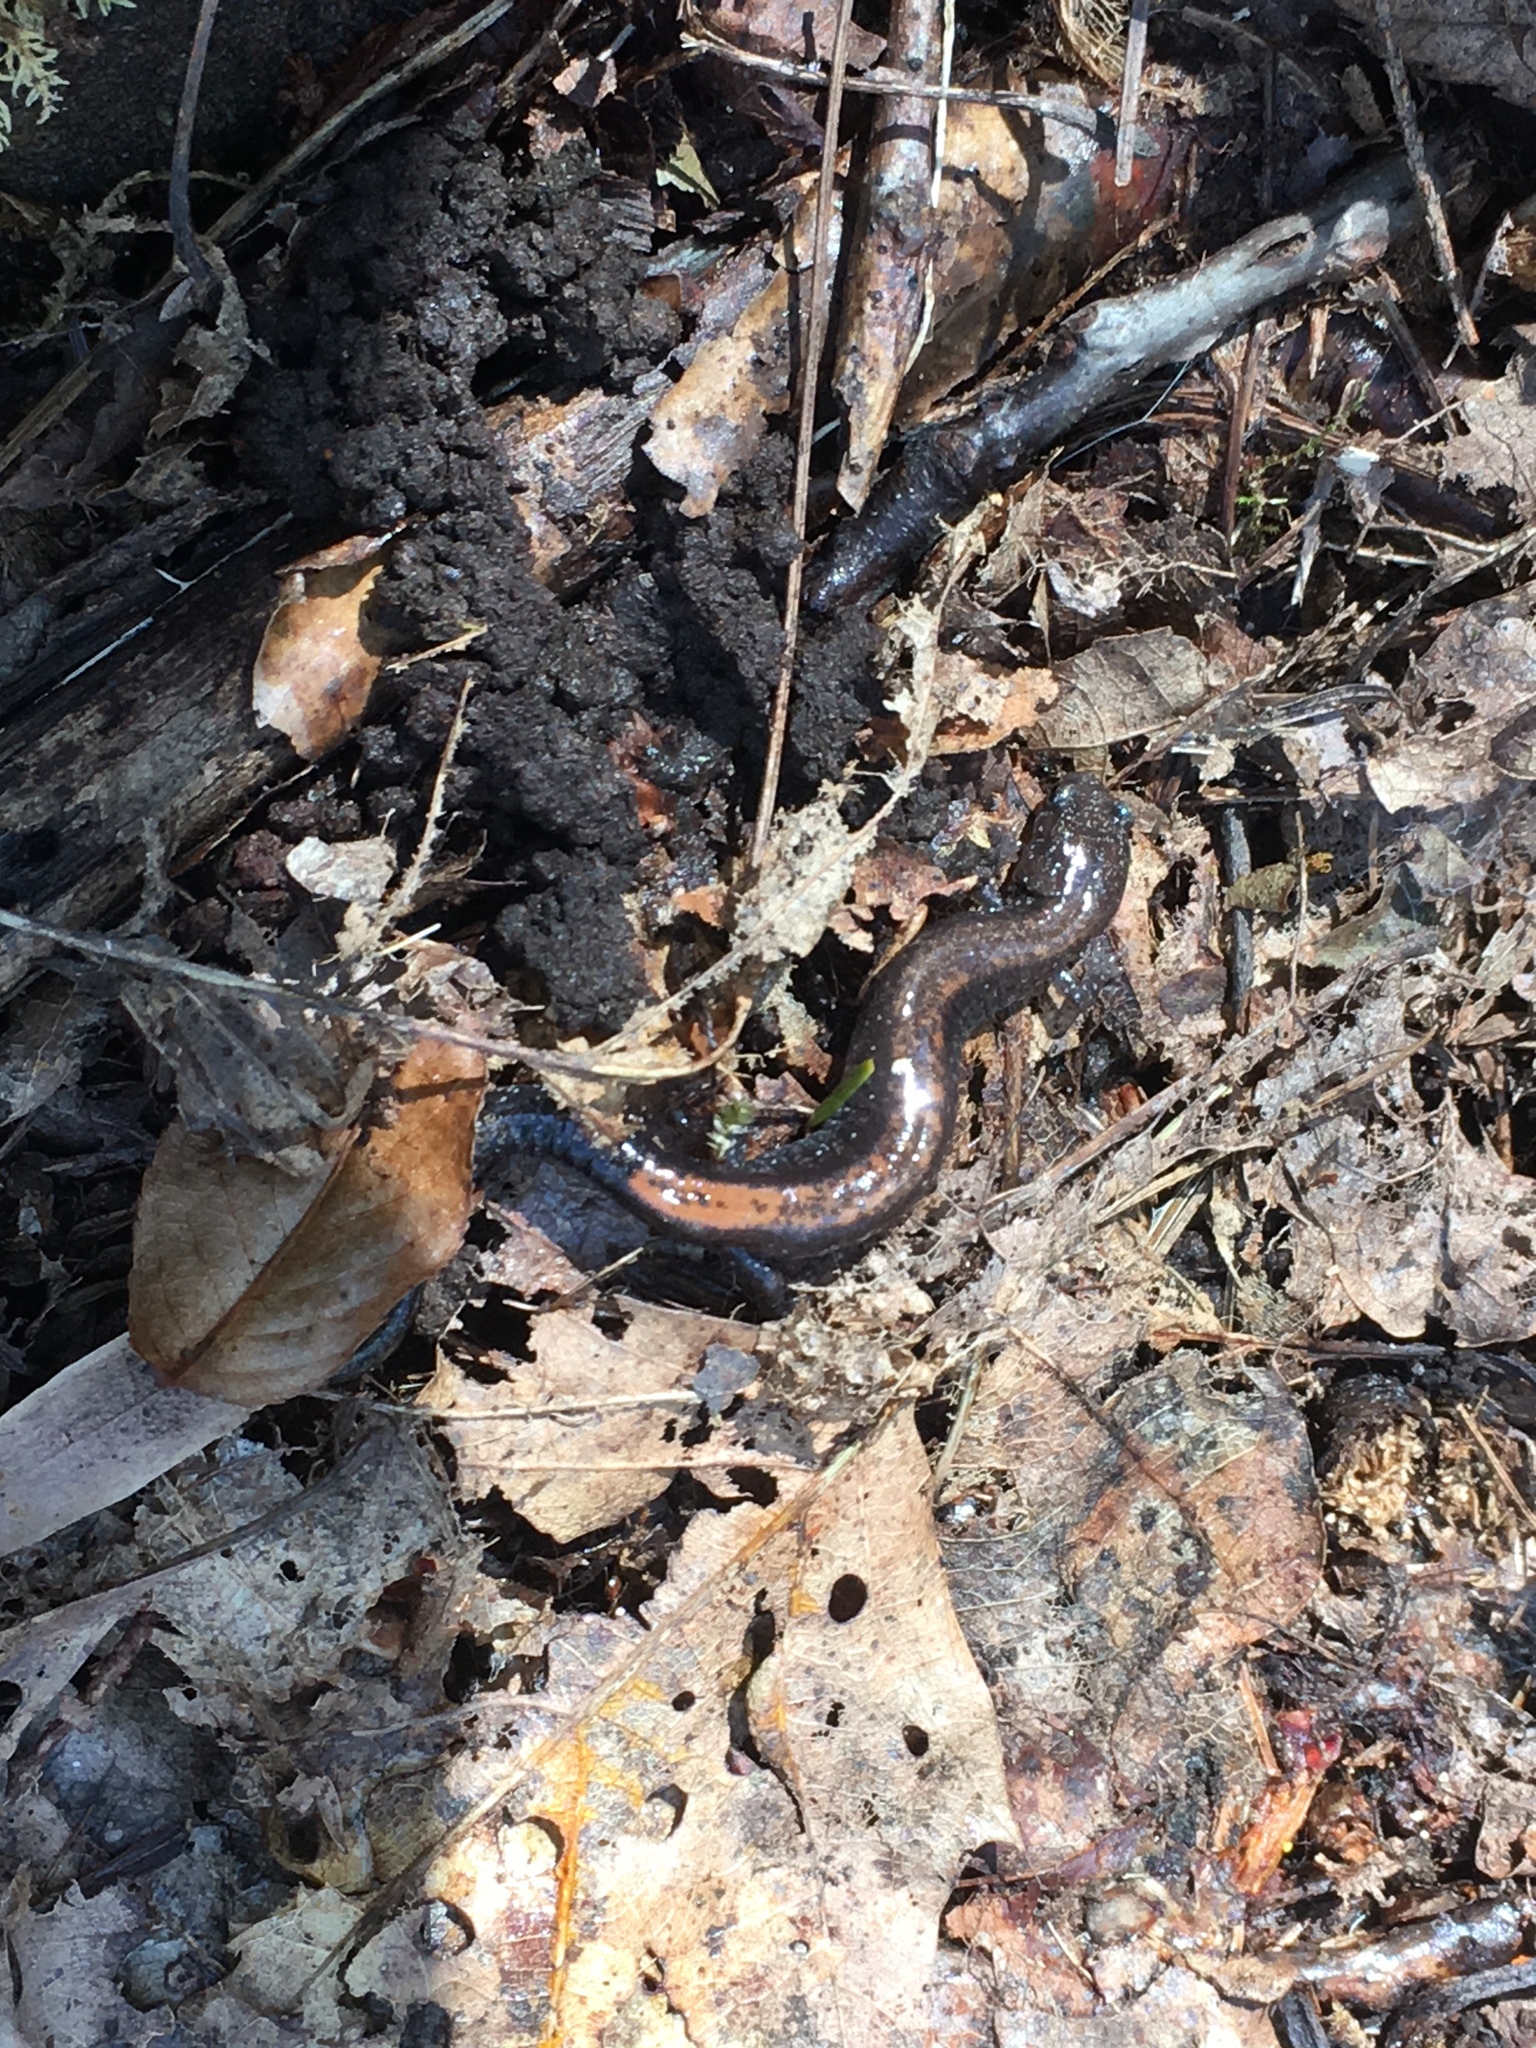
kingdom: Animalia
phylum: Chordata
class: Amphibia
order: Caudata
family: Plethodontidae
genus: Plethodon
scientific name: Plethodon cinereus
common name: Redback salamander
